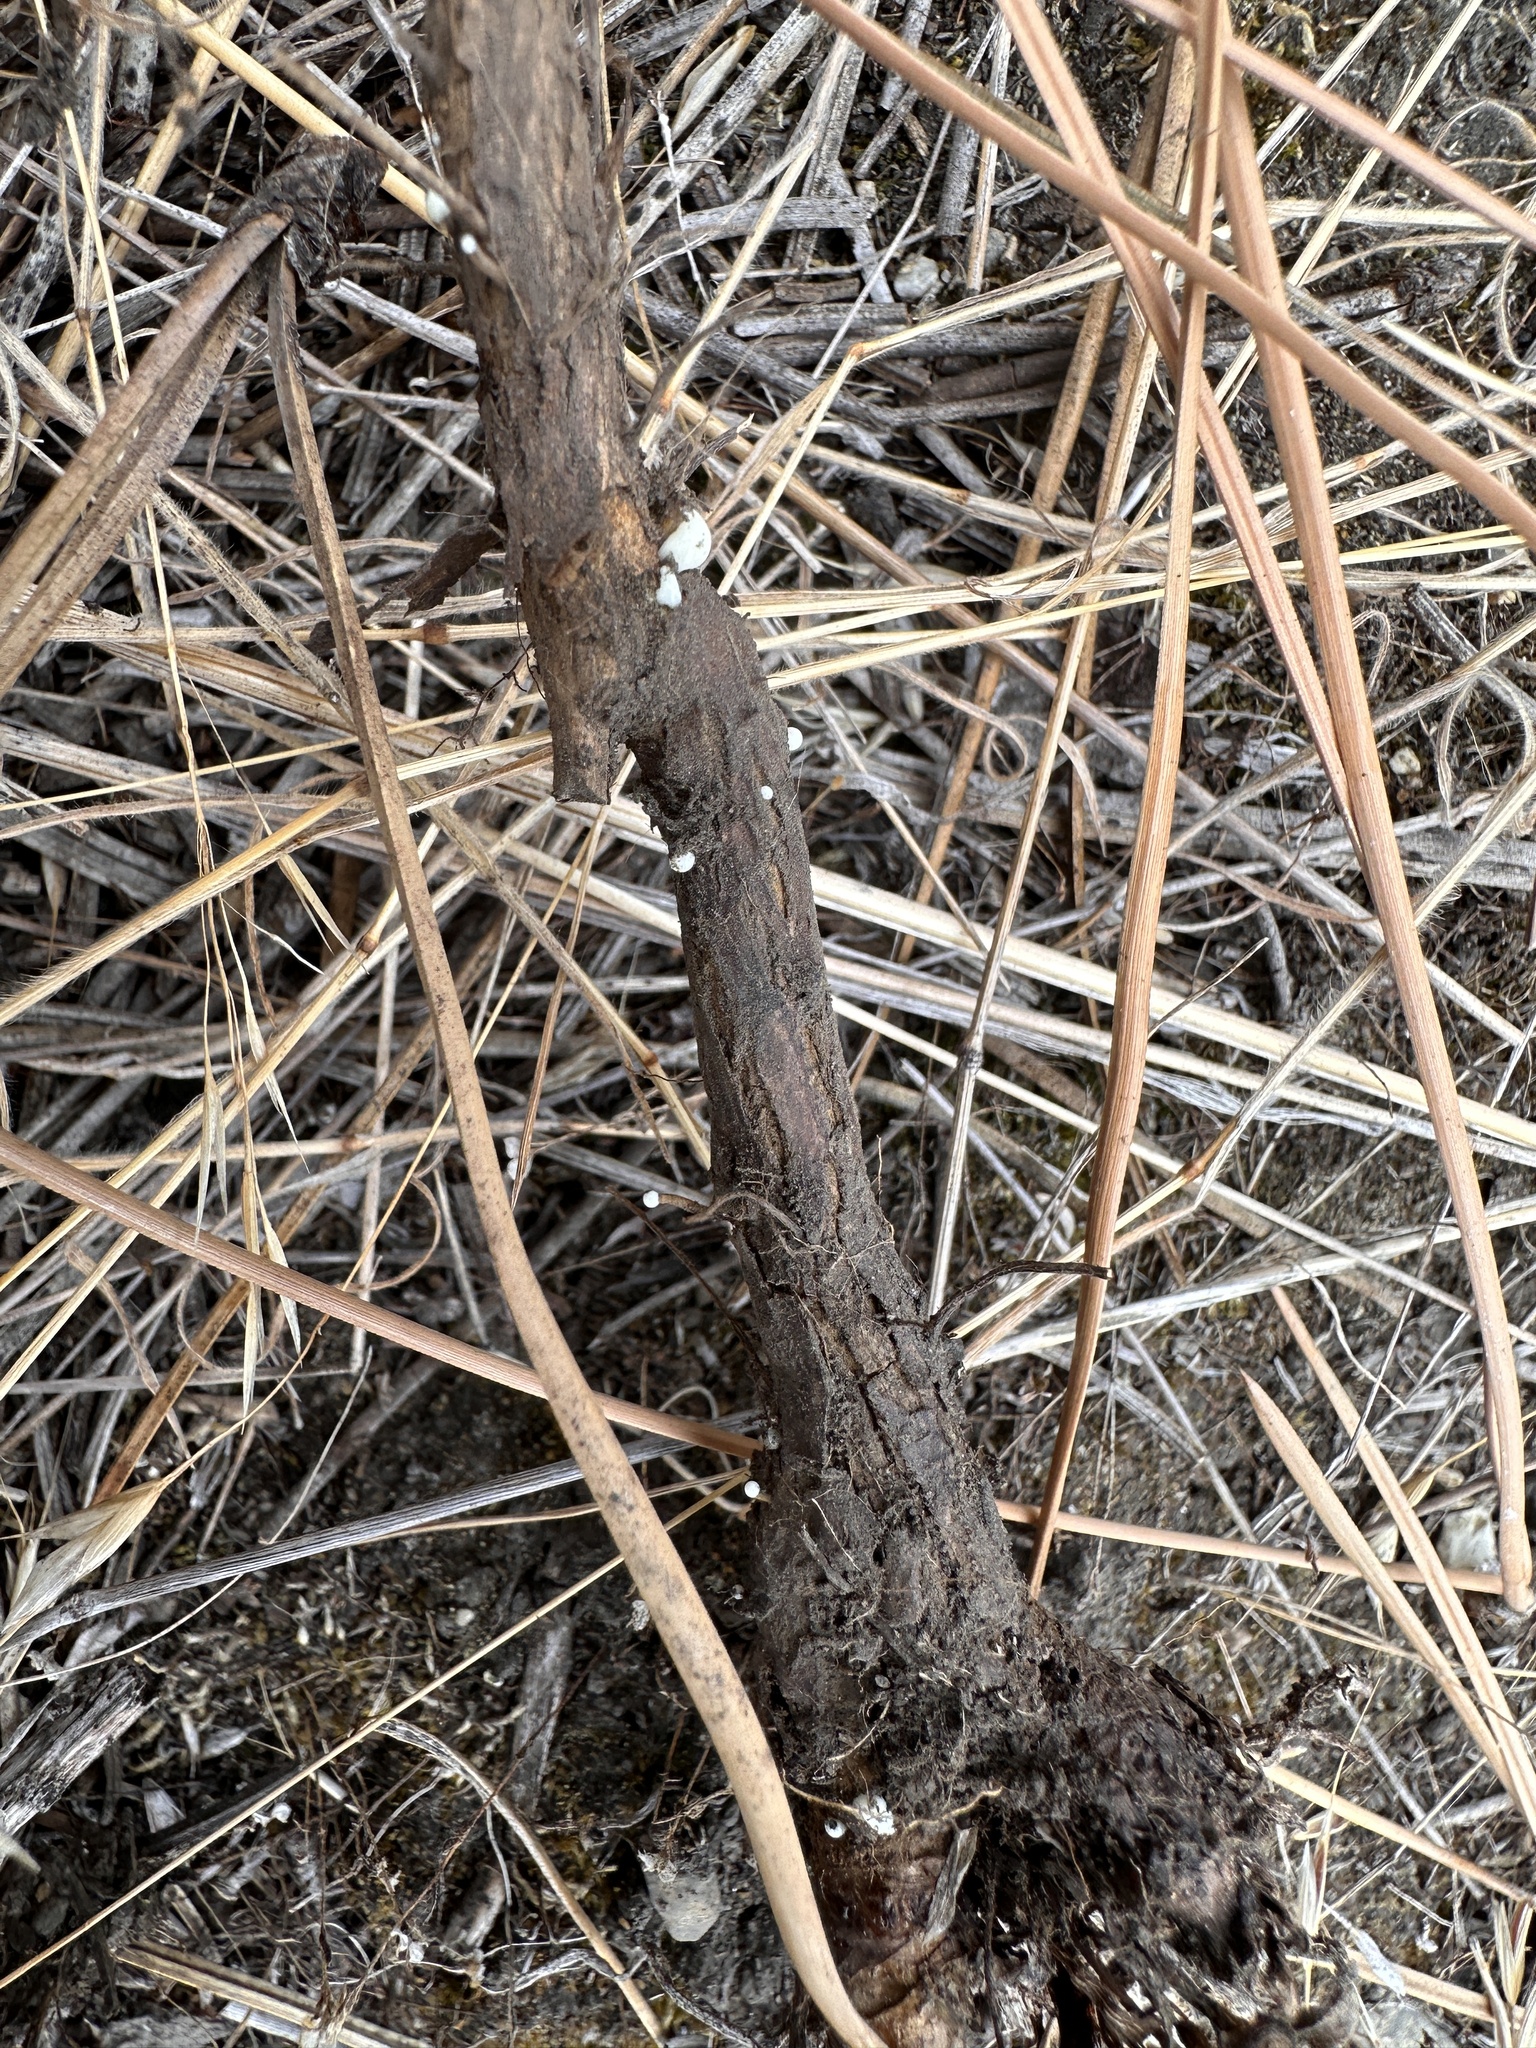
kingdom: Plantae
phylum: Tracheophyta
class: Magnoliopsida
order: Asterales
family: Asteraceae
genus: Chondrilla
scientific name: Chondrilla juncea
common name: Skeleton weed
